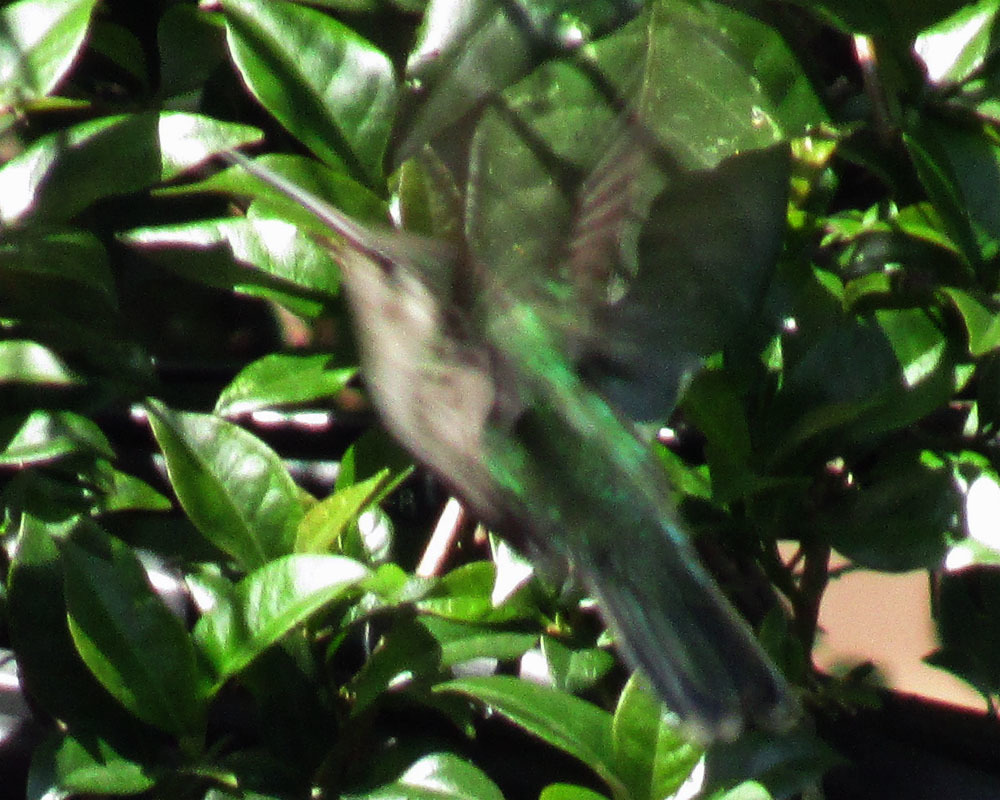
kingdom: Animalia
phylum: Chordata
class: Aves
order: Apodiformes
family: Trochilidae
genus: Cynanthus
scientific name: Cynanthus latirostris
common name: Broad-billed hummingbird
